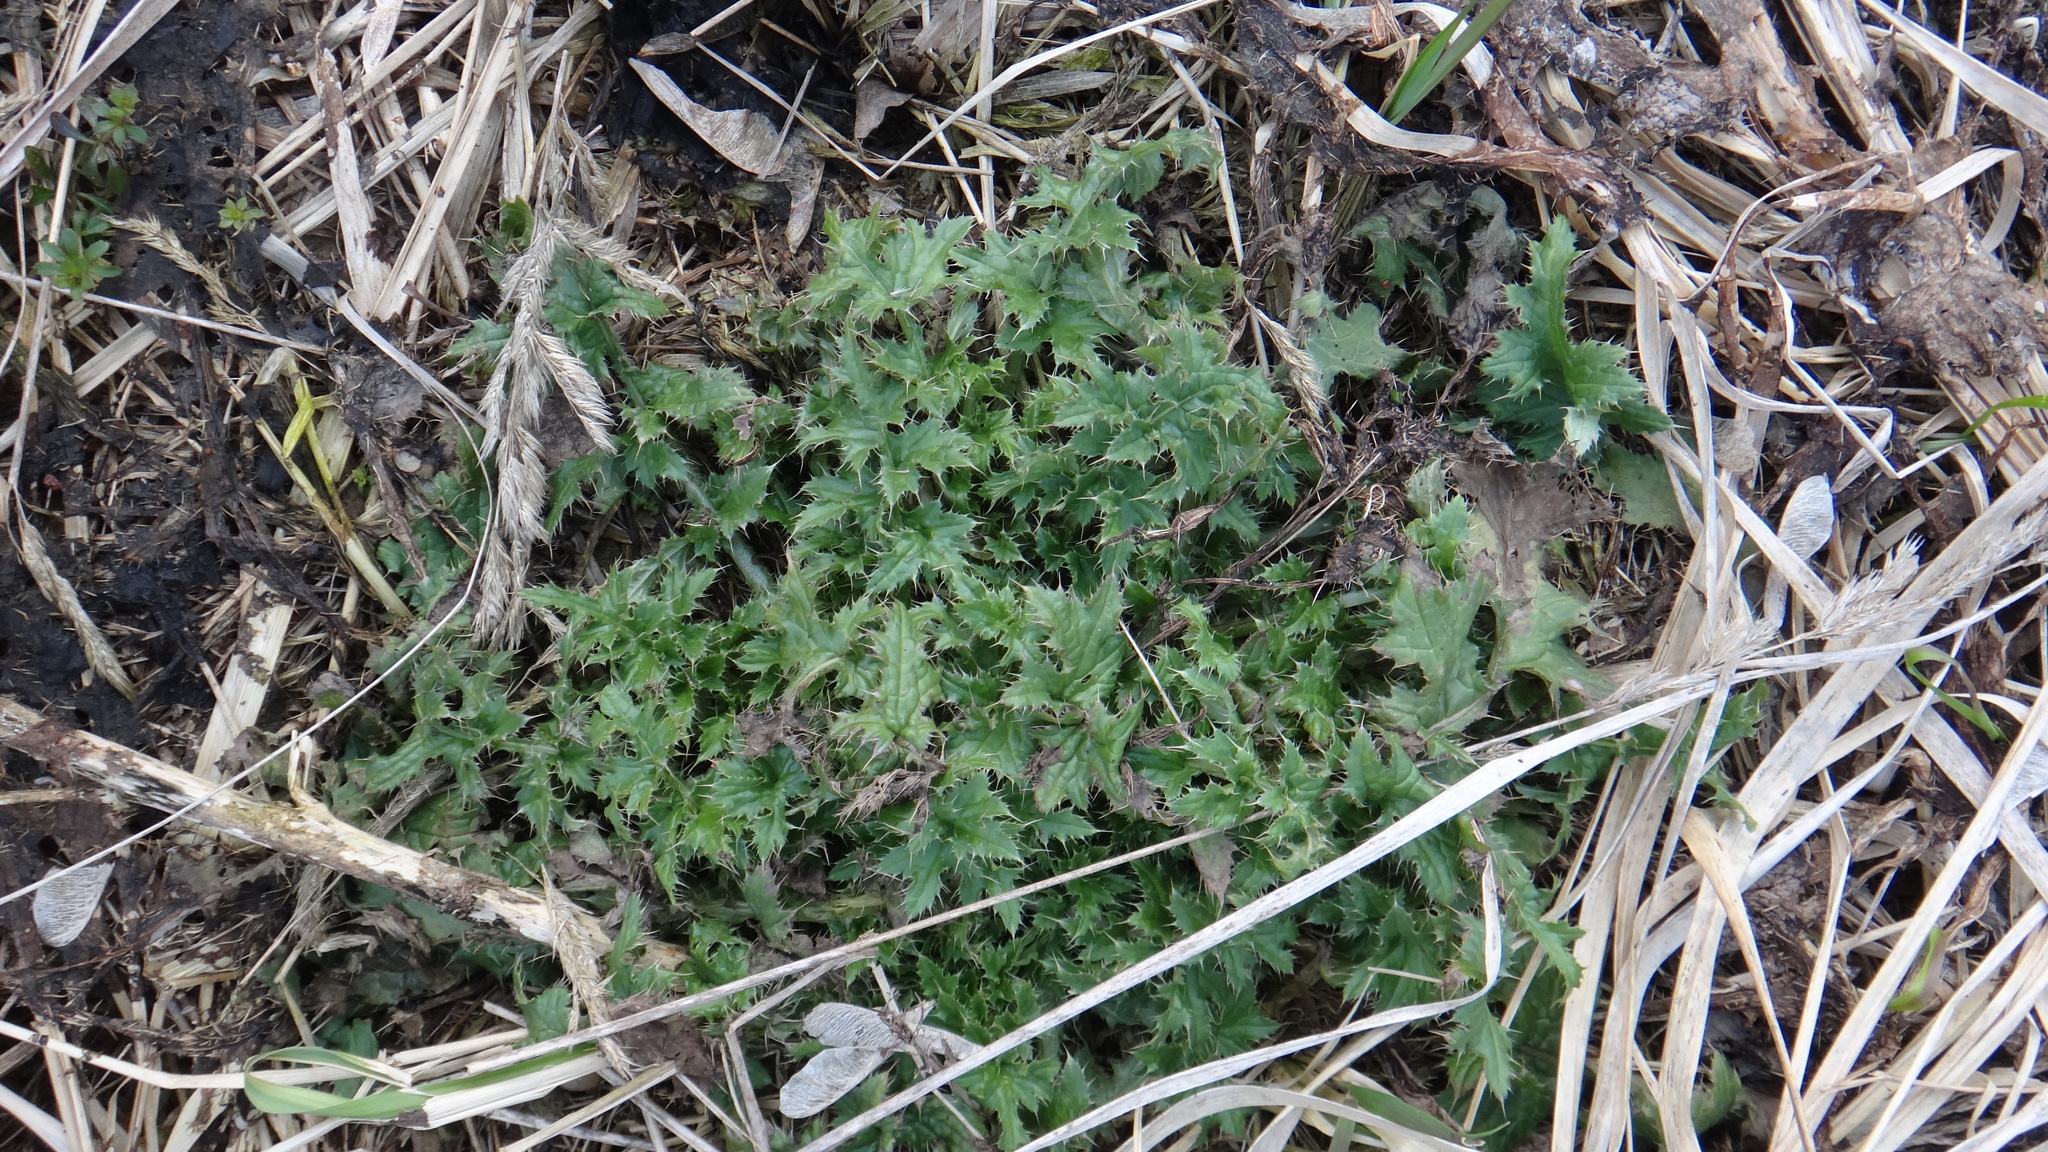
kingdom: Plantae
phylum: Tracheophyta
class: Magnoliopsida
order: Asterales
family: Asteraceae
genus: Carduus
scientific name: Carduus crispus
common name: Welted thistle
